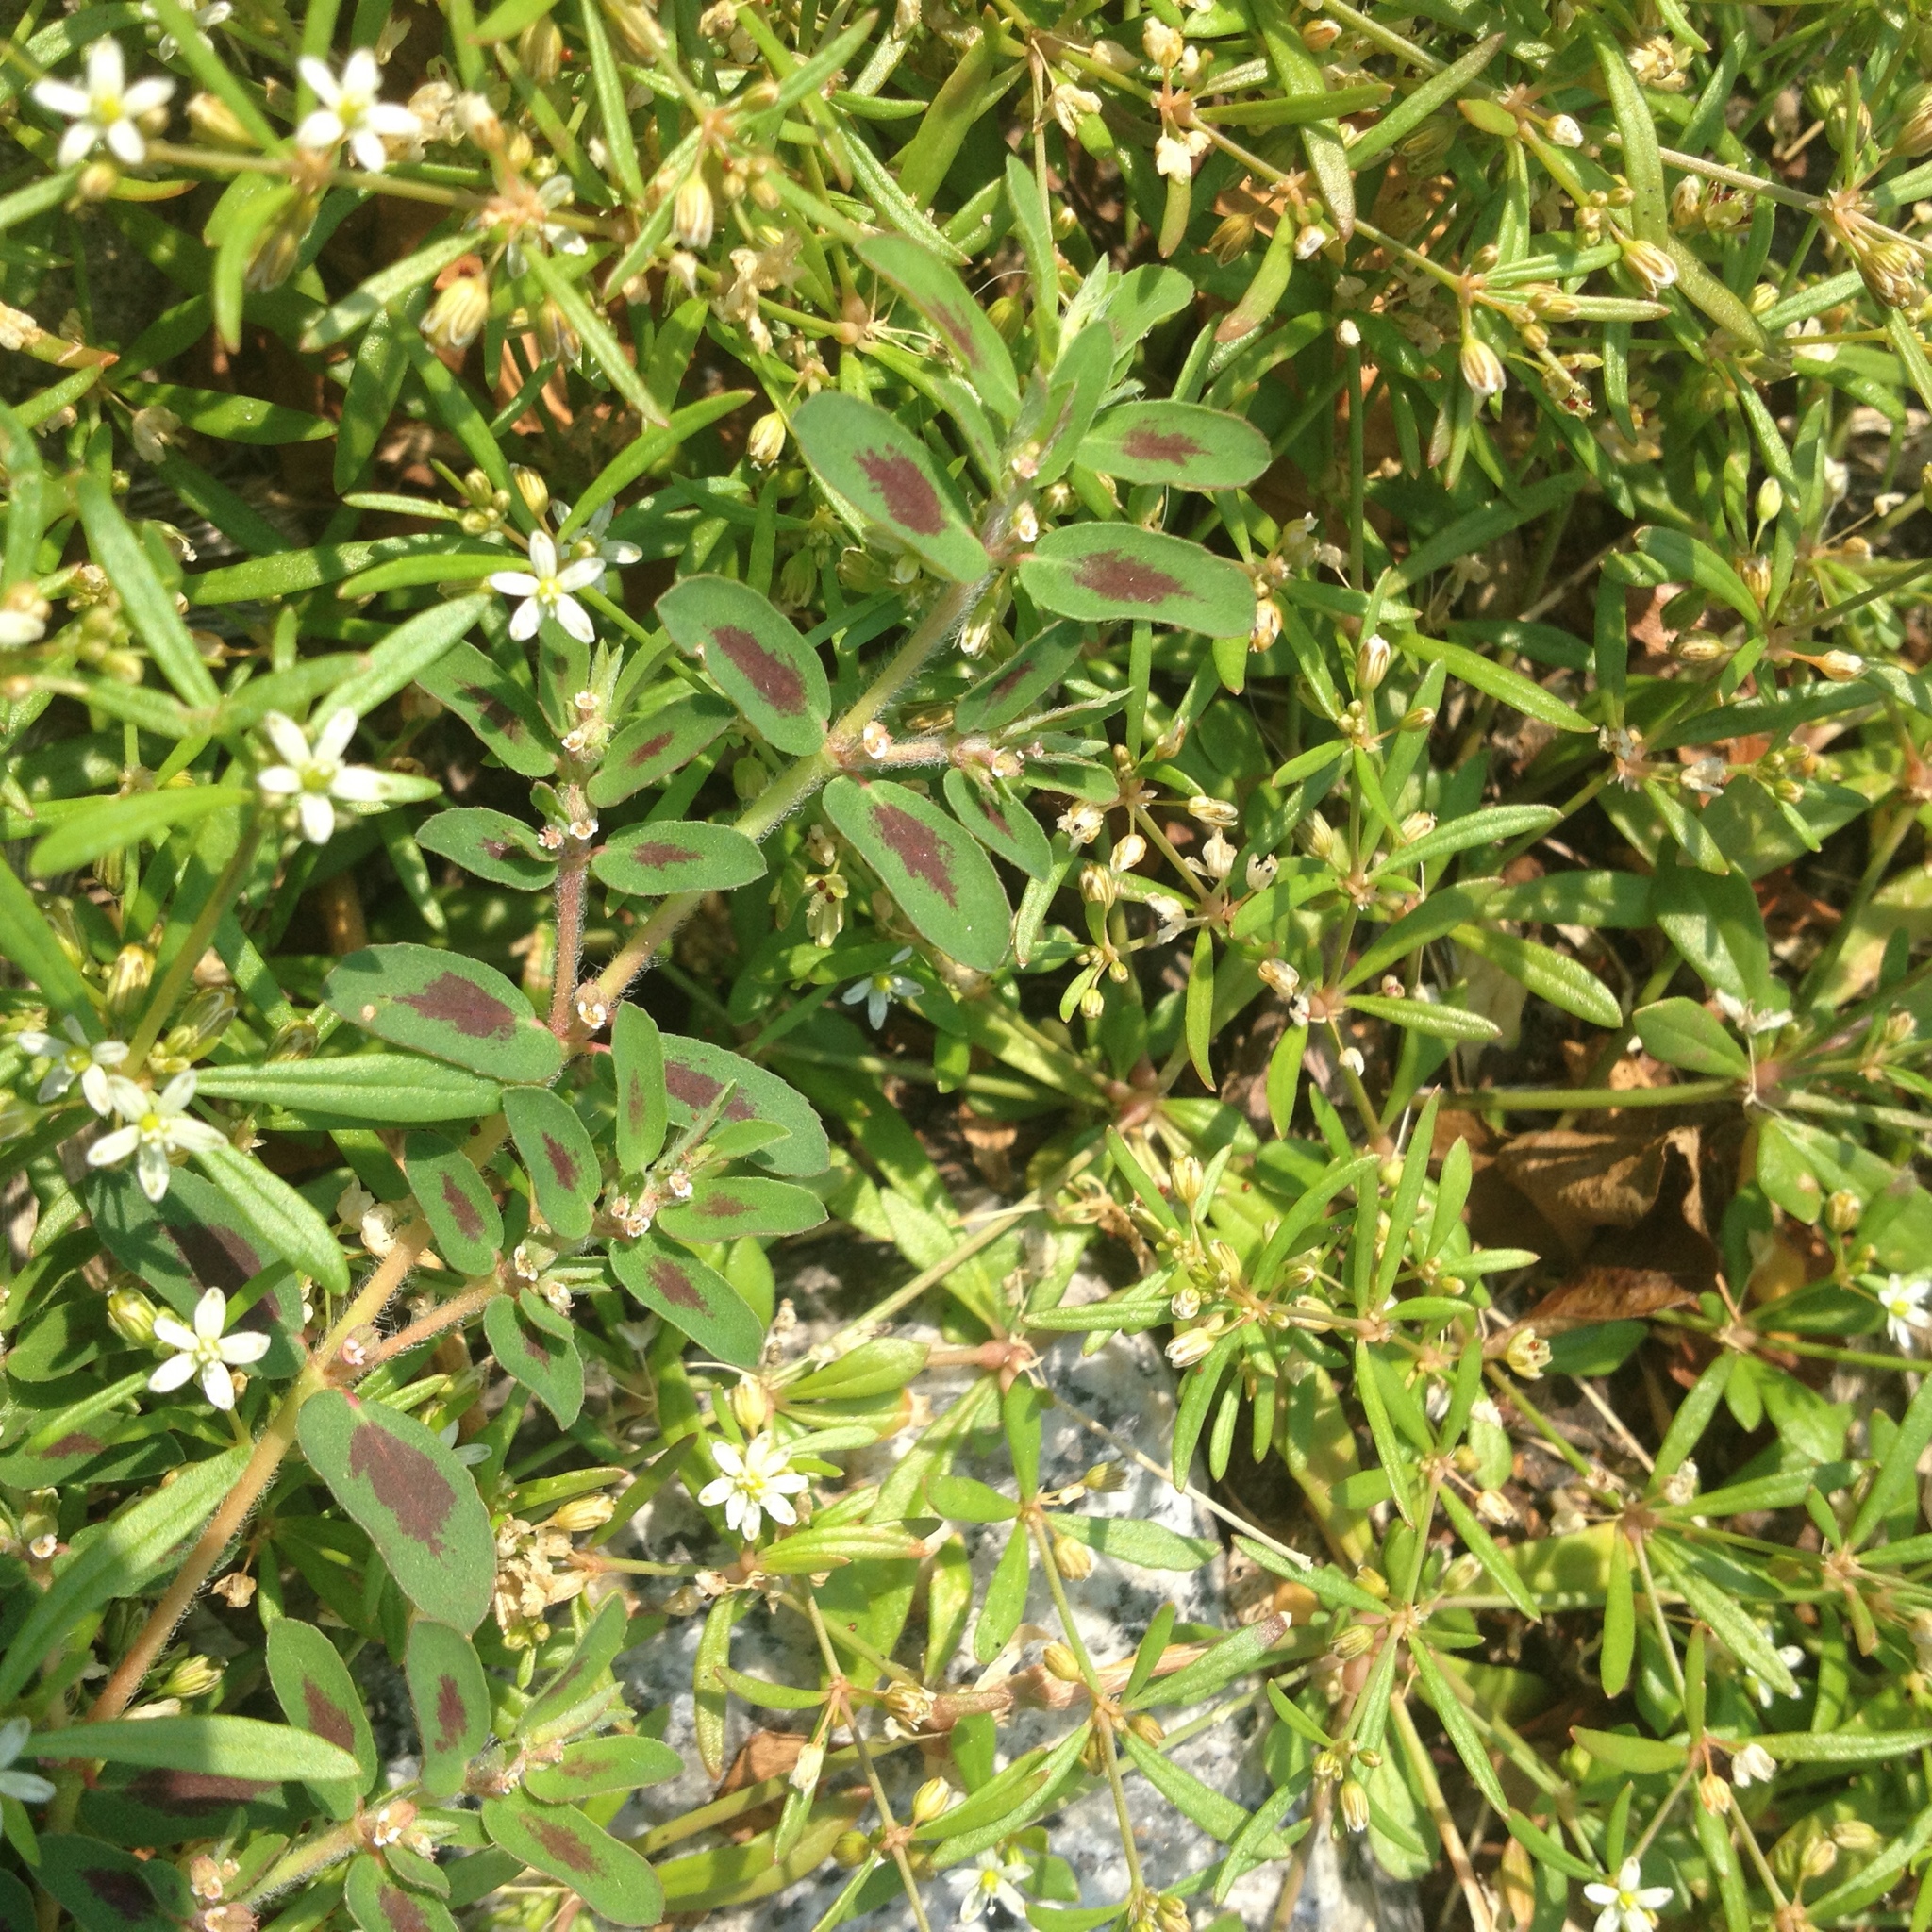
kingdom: Plantae
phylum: Tracheophyta
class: Magnoliopsida
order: Malpighiales
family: Euphorbiaceae
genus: Euphorbia
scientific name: Euphorbia maculata
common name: Spotted spurge
